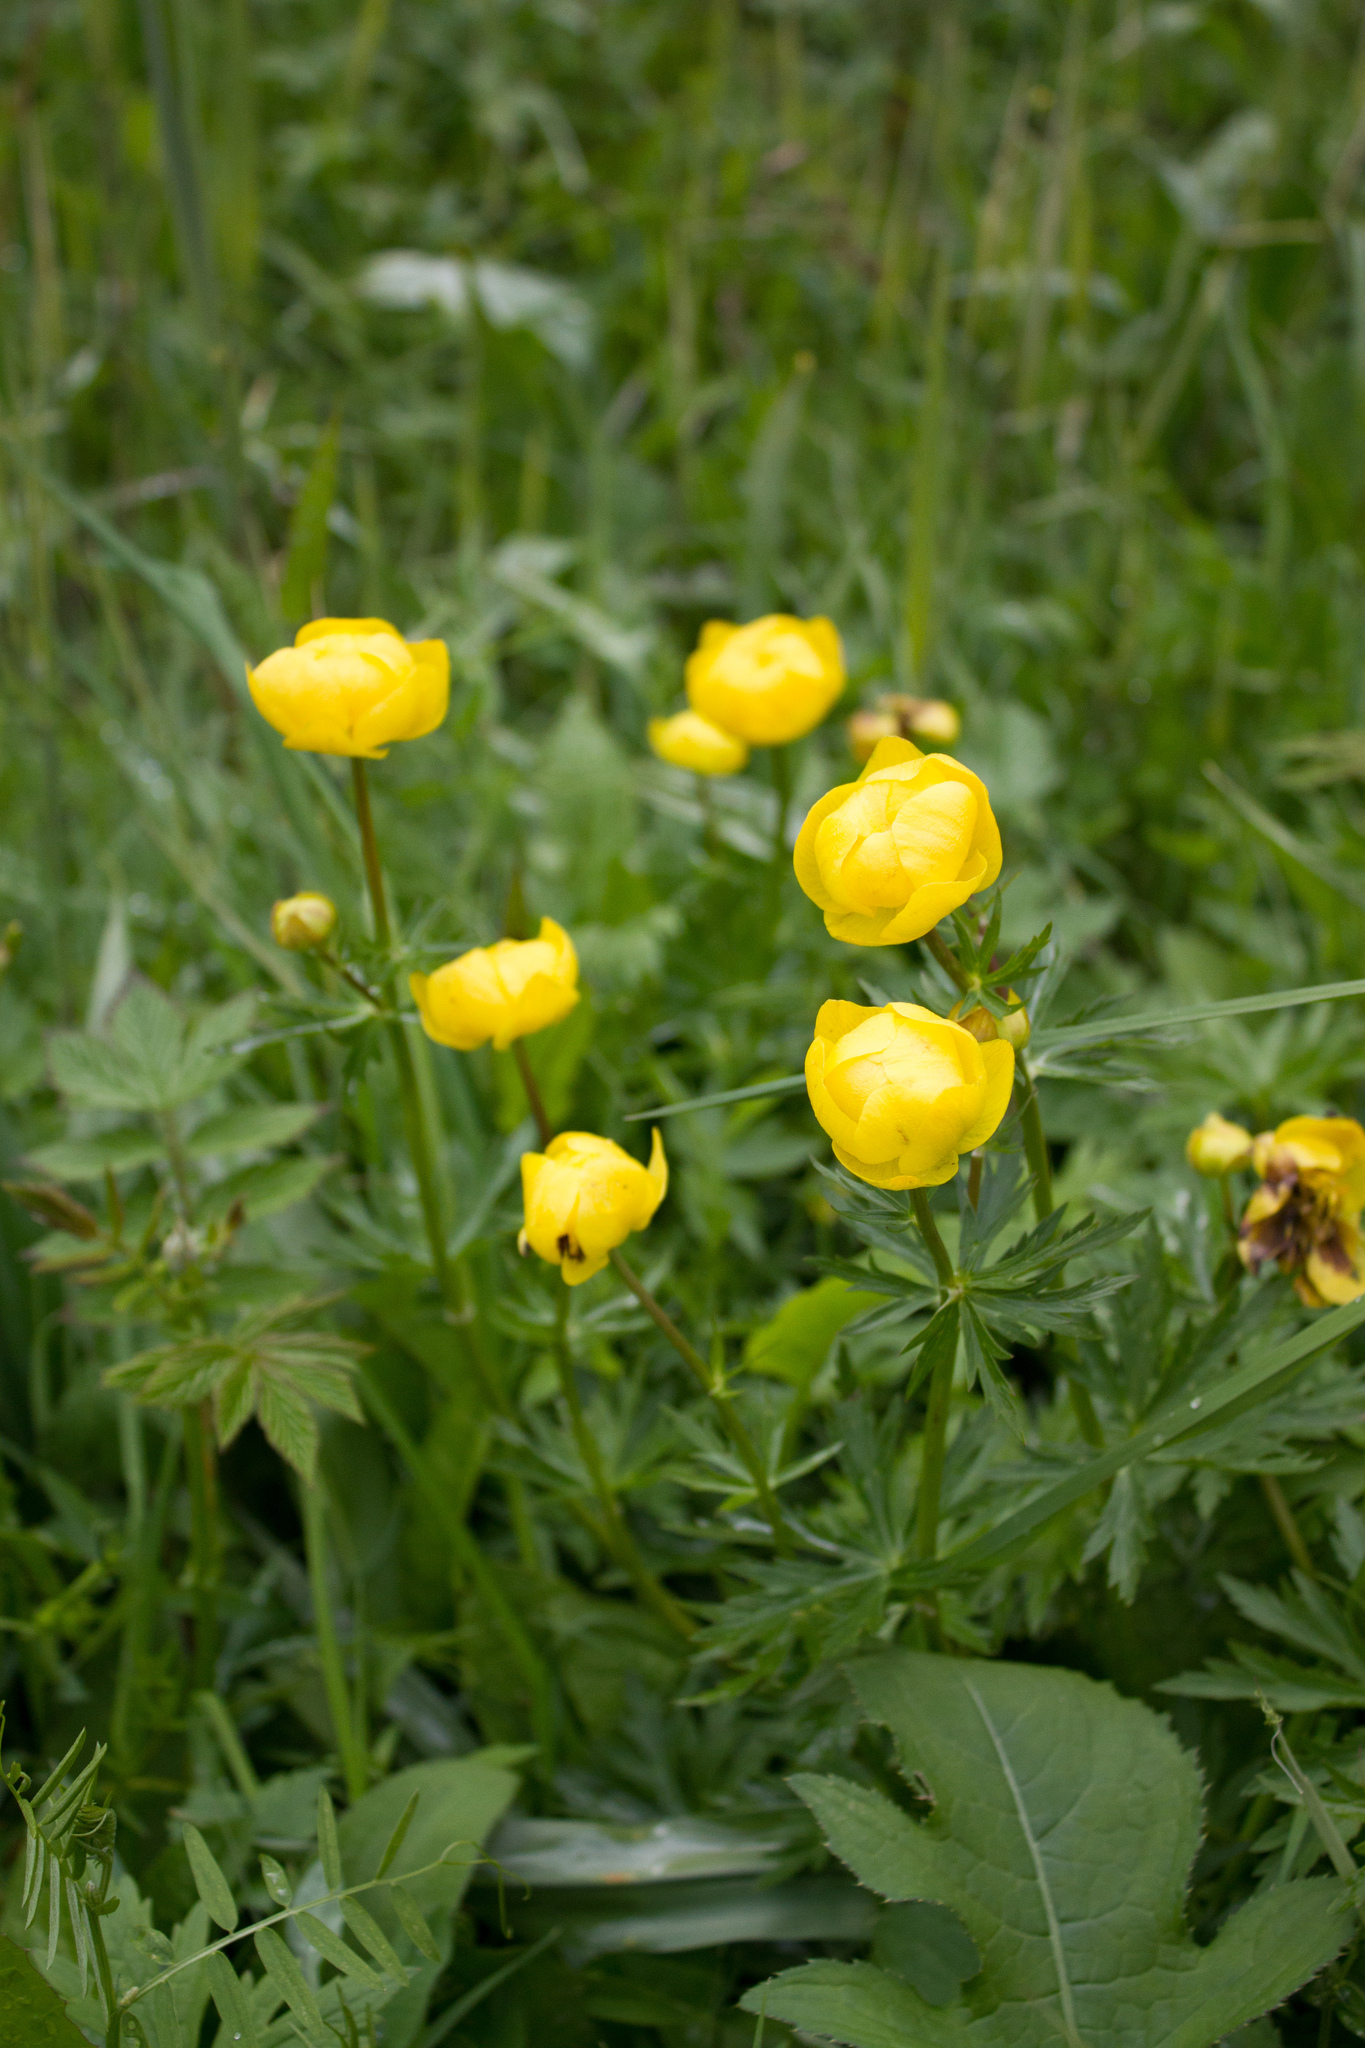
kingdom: Plantae
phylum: Tracheophyta
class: Magnoliopsida
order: Ranunculales
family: Ranunculaceae
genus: Trollius
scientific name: Trollius europaeus
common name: European globeflower
